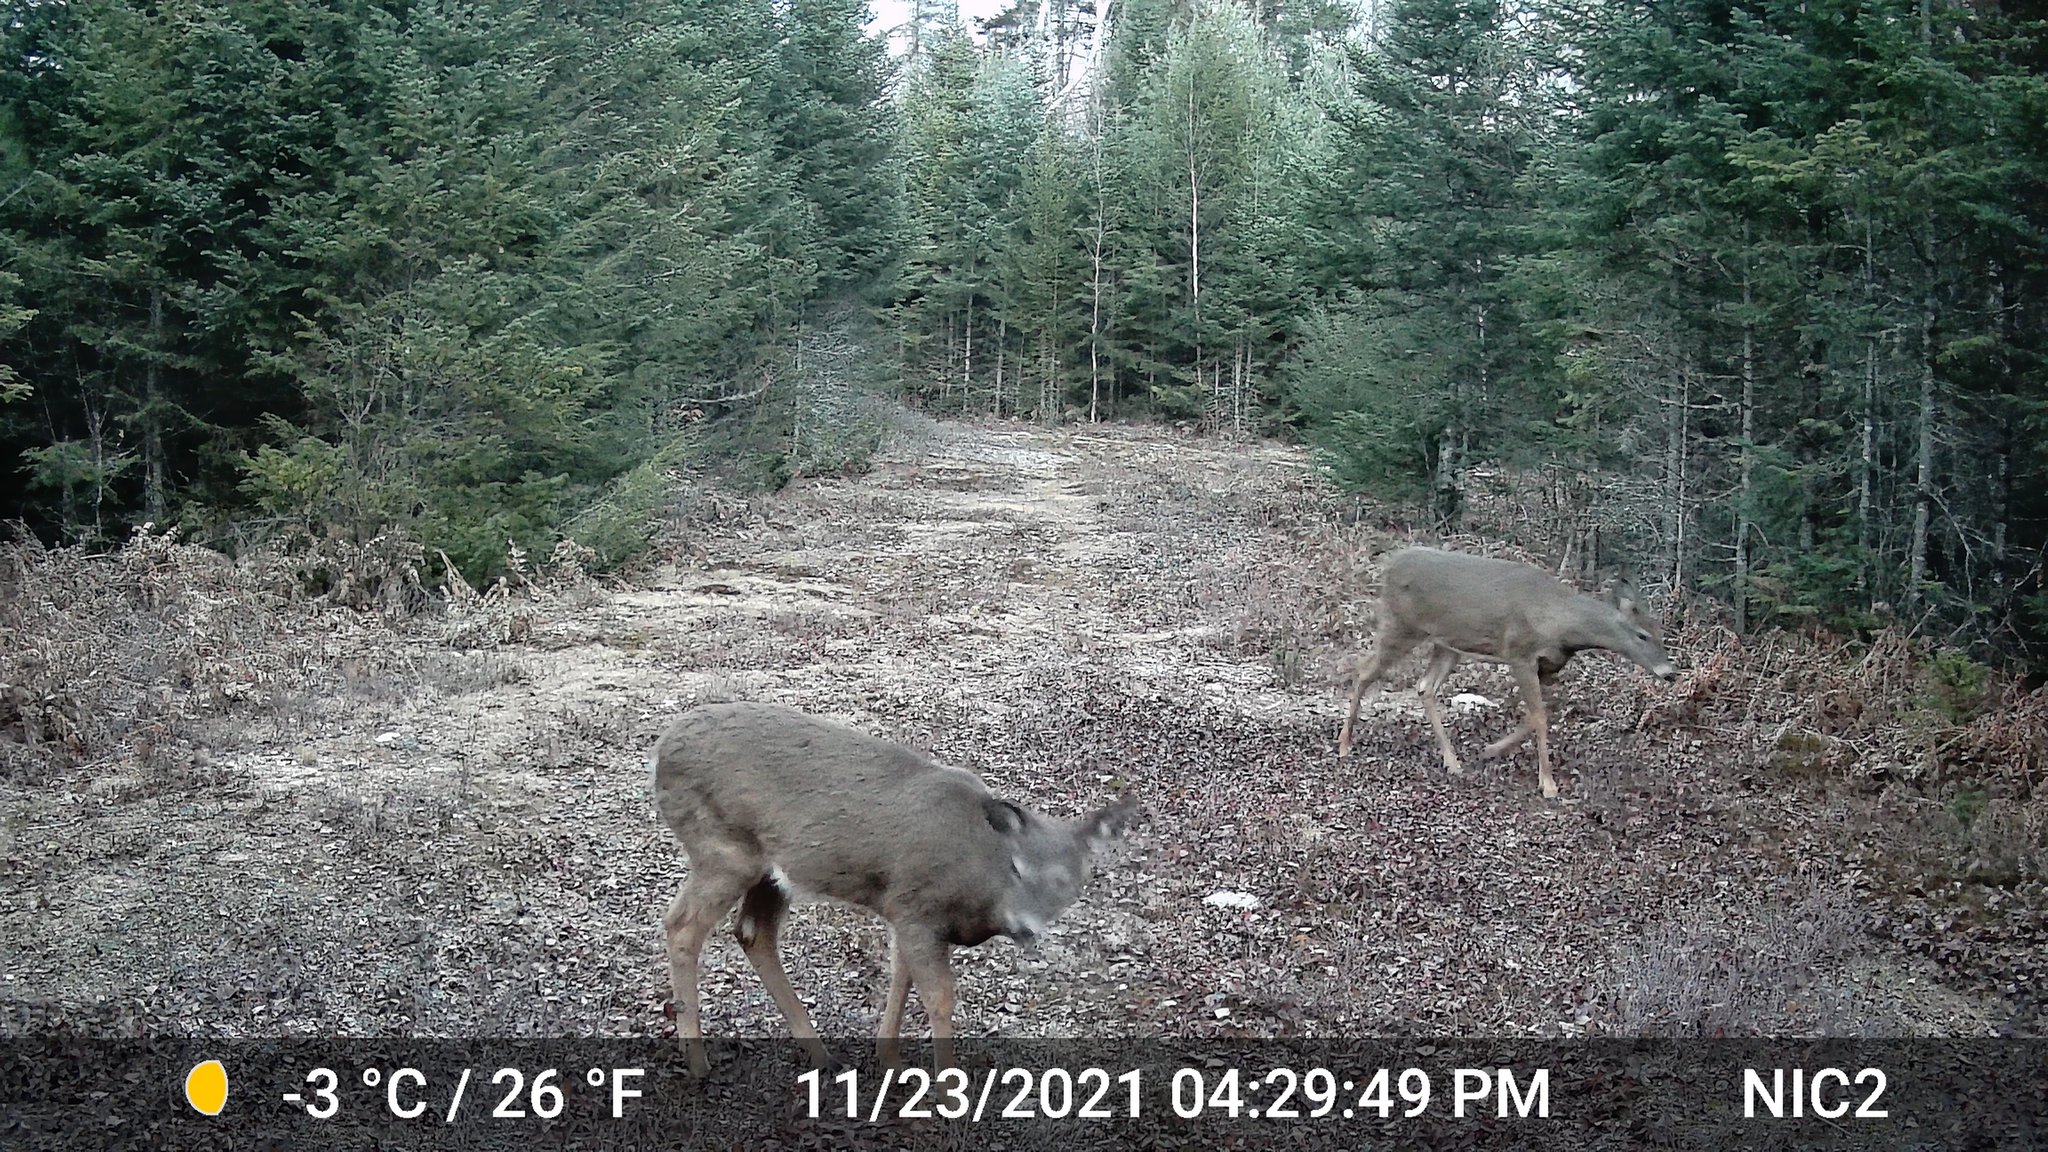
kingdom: Animalia
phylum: Chordata
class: Mammalia
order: Artiodactyla
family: Cervidae
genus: Odocoileus
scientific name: Odocoileus virginianus
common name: White-tailed deer
